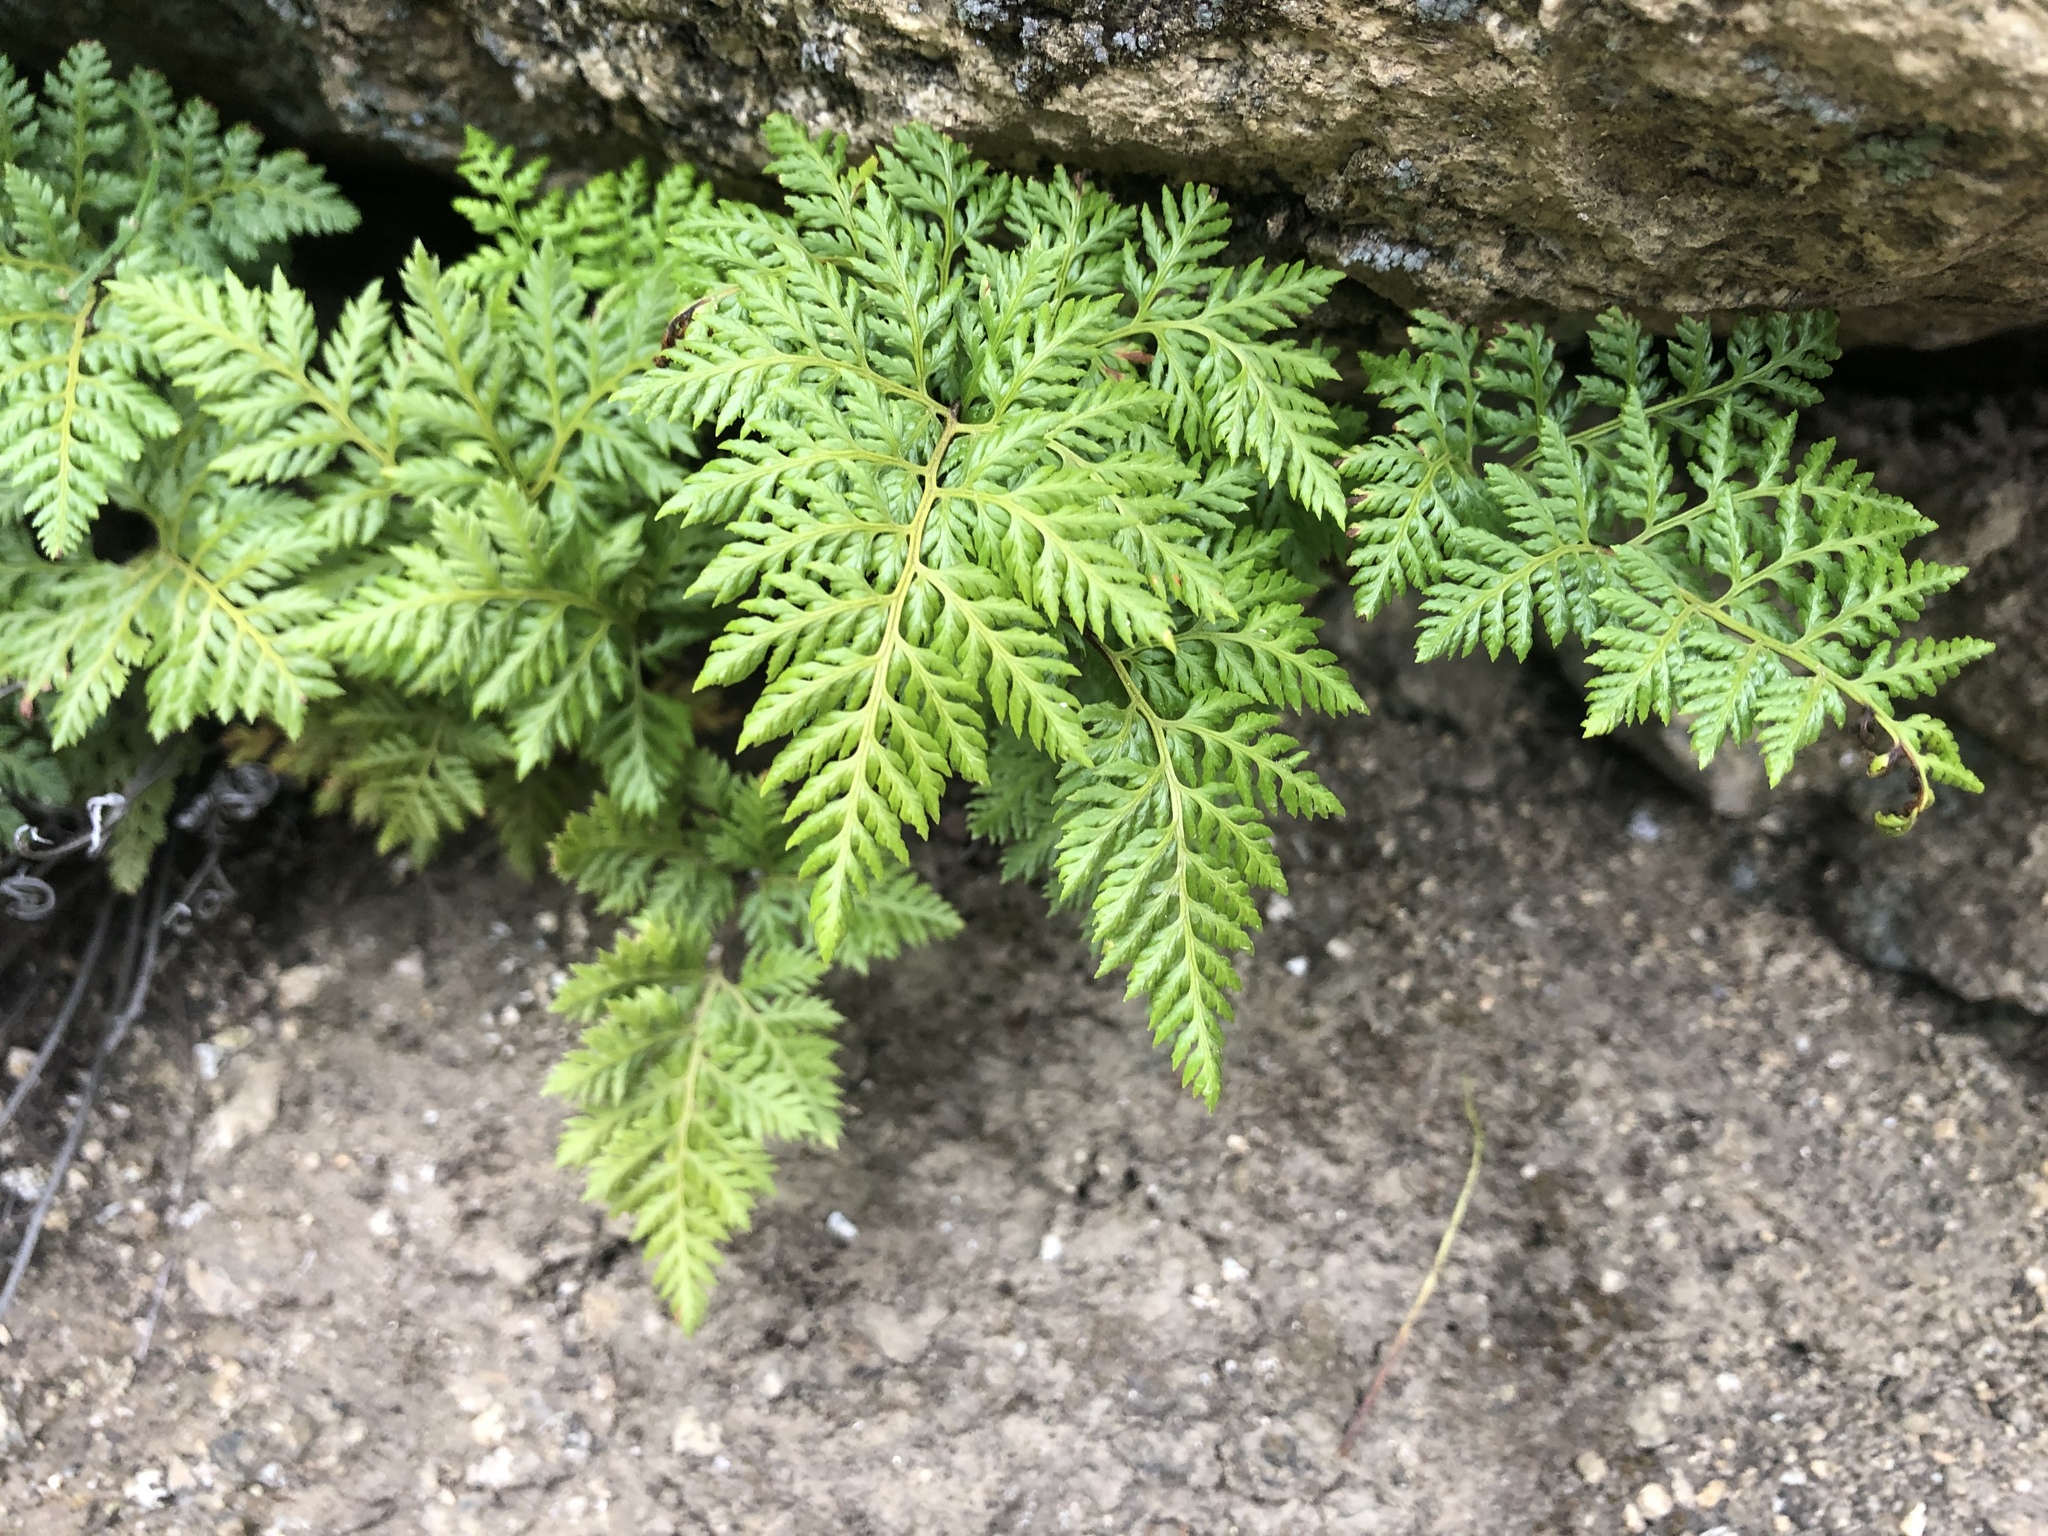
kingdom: Plantae
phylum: Tracheophyta
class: Polypodiopsida
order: Polypodiales
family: Pteridaceae
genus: Aspidotis
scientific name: Aspidotis californica
